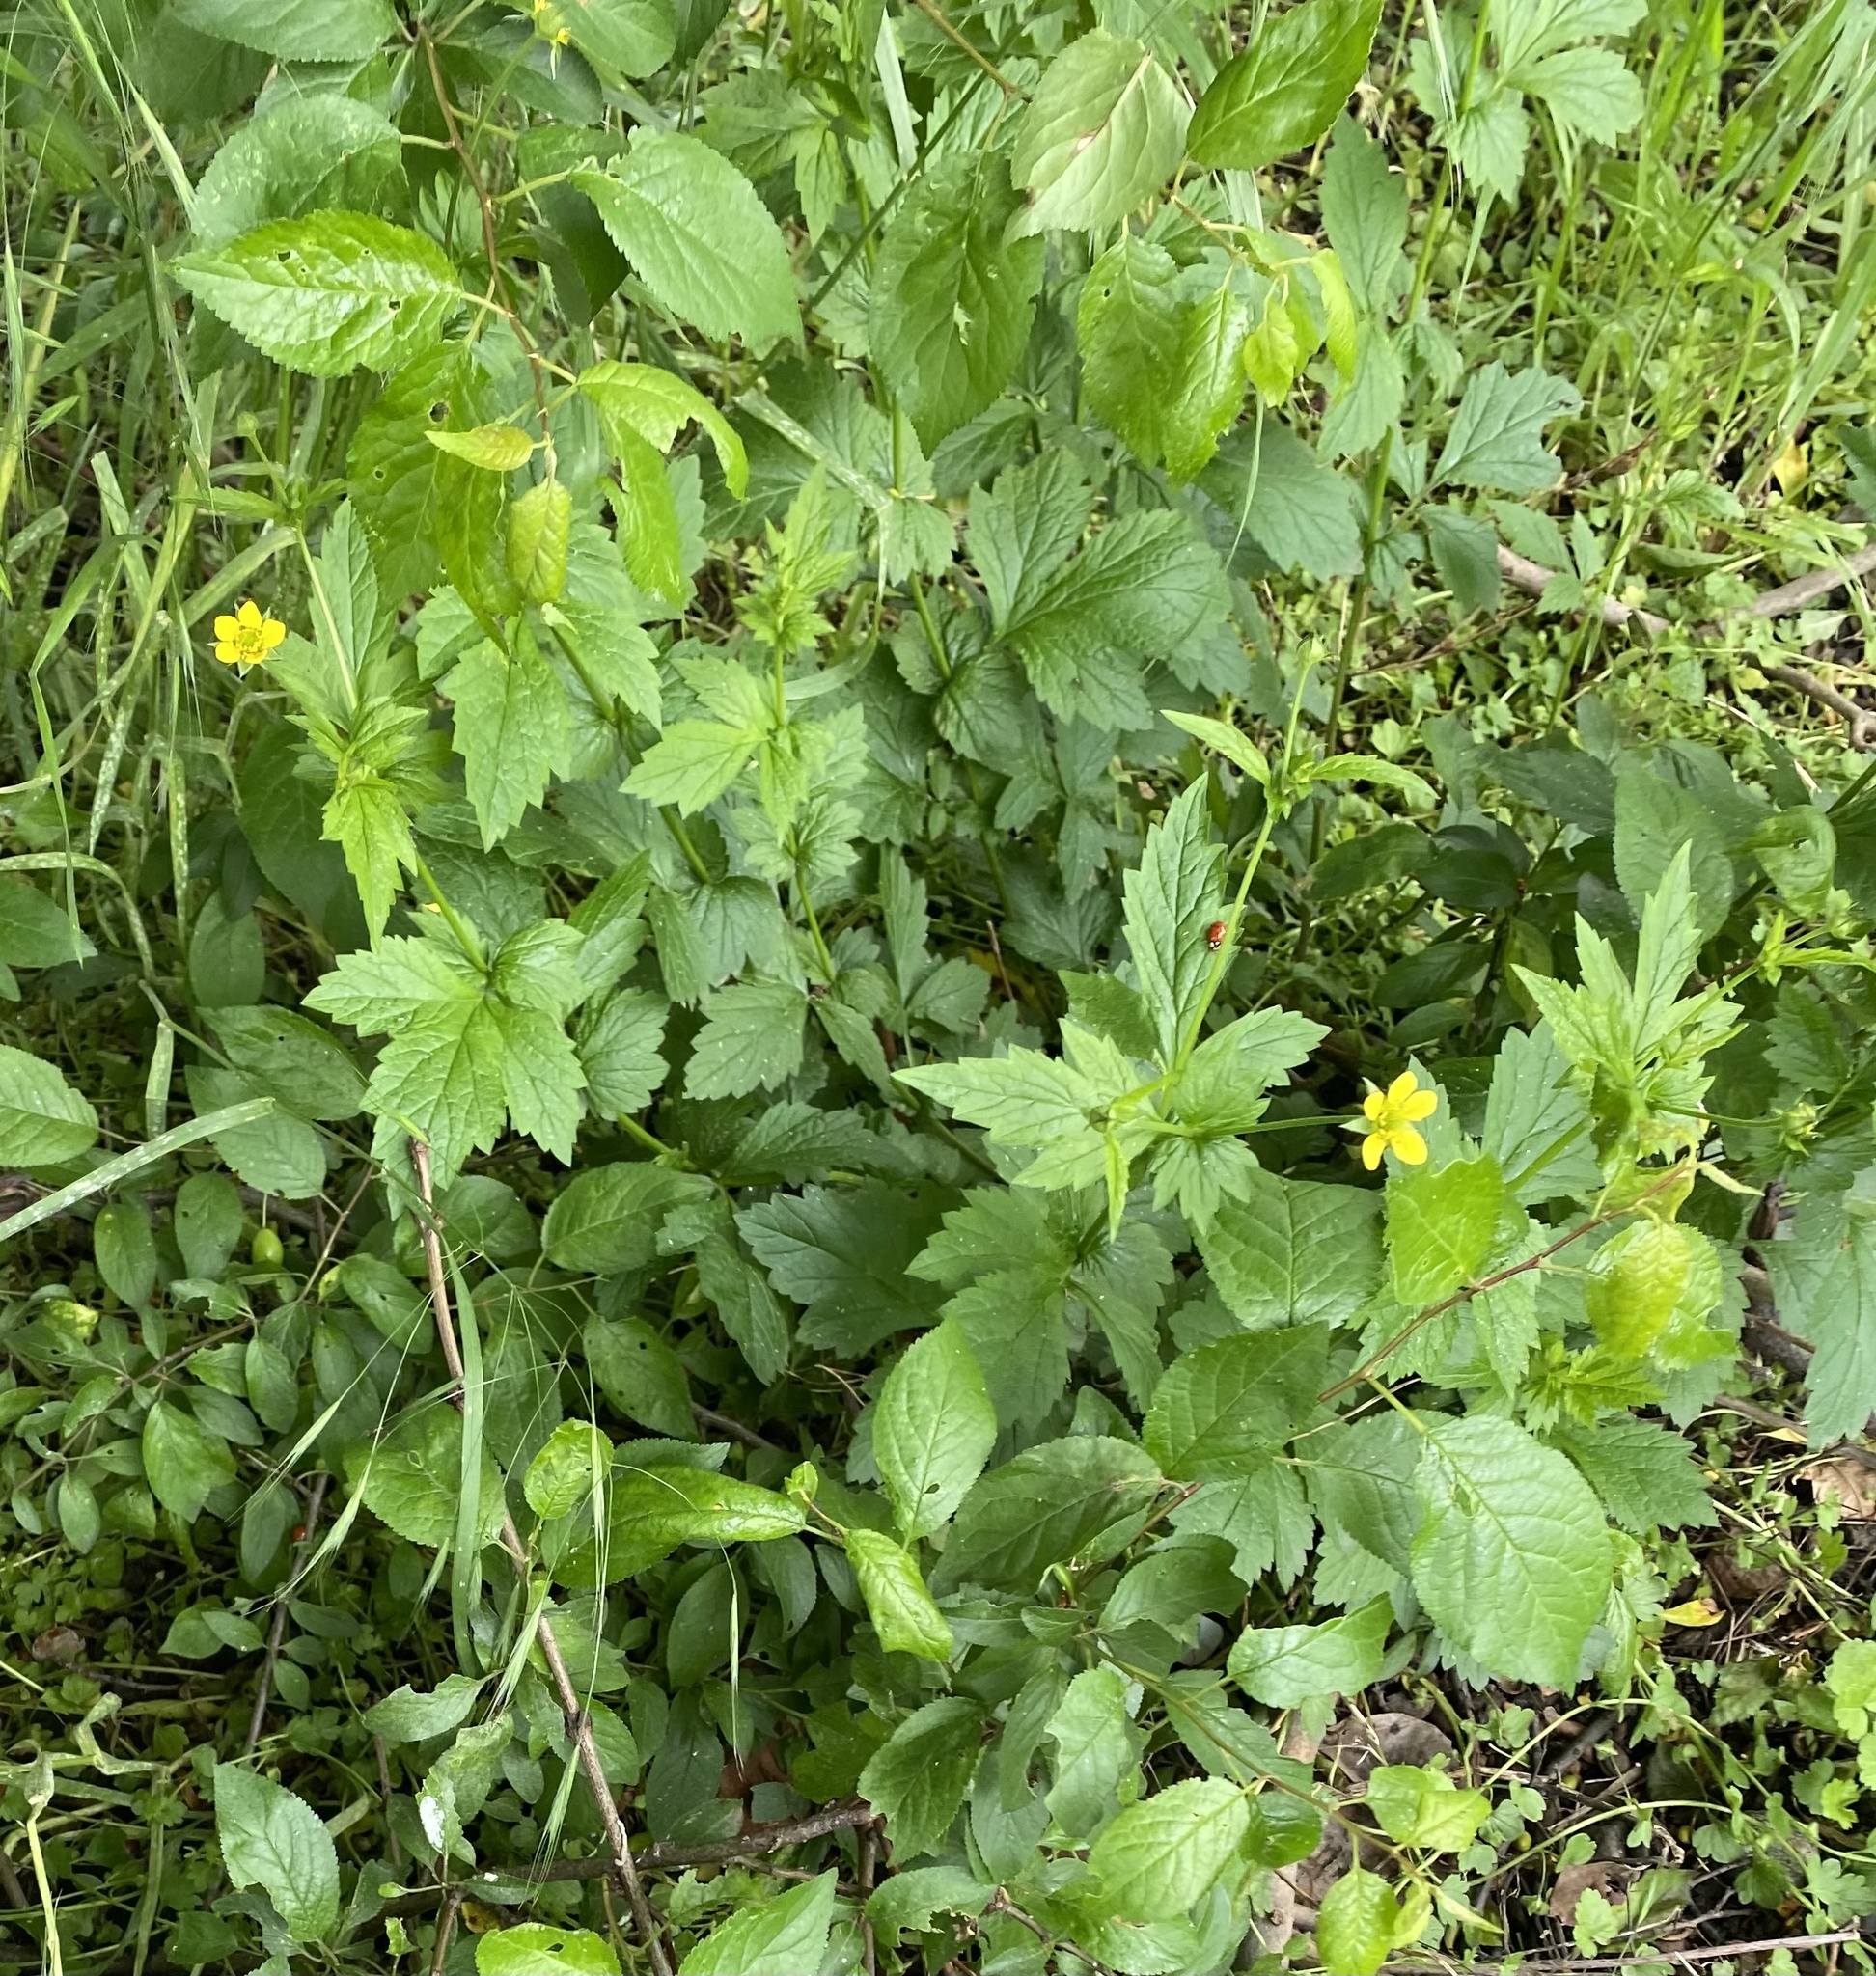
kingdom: Plantae
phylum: Tracheophyta
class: Magnoliopsida
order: Rosales
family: Rosaceae
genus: Geum
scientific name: Geum urbanum
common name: Wood avens
